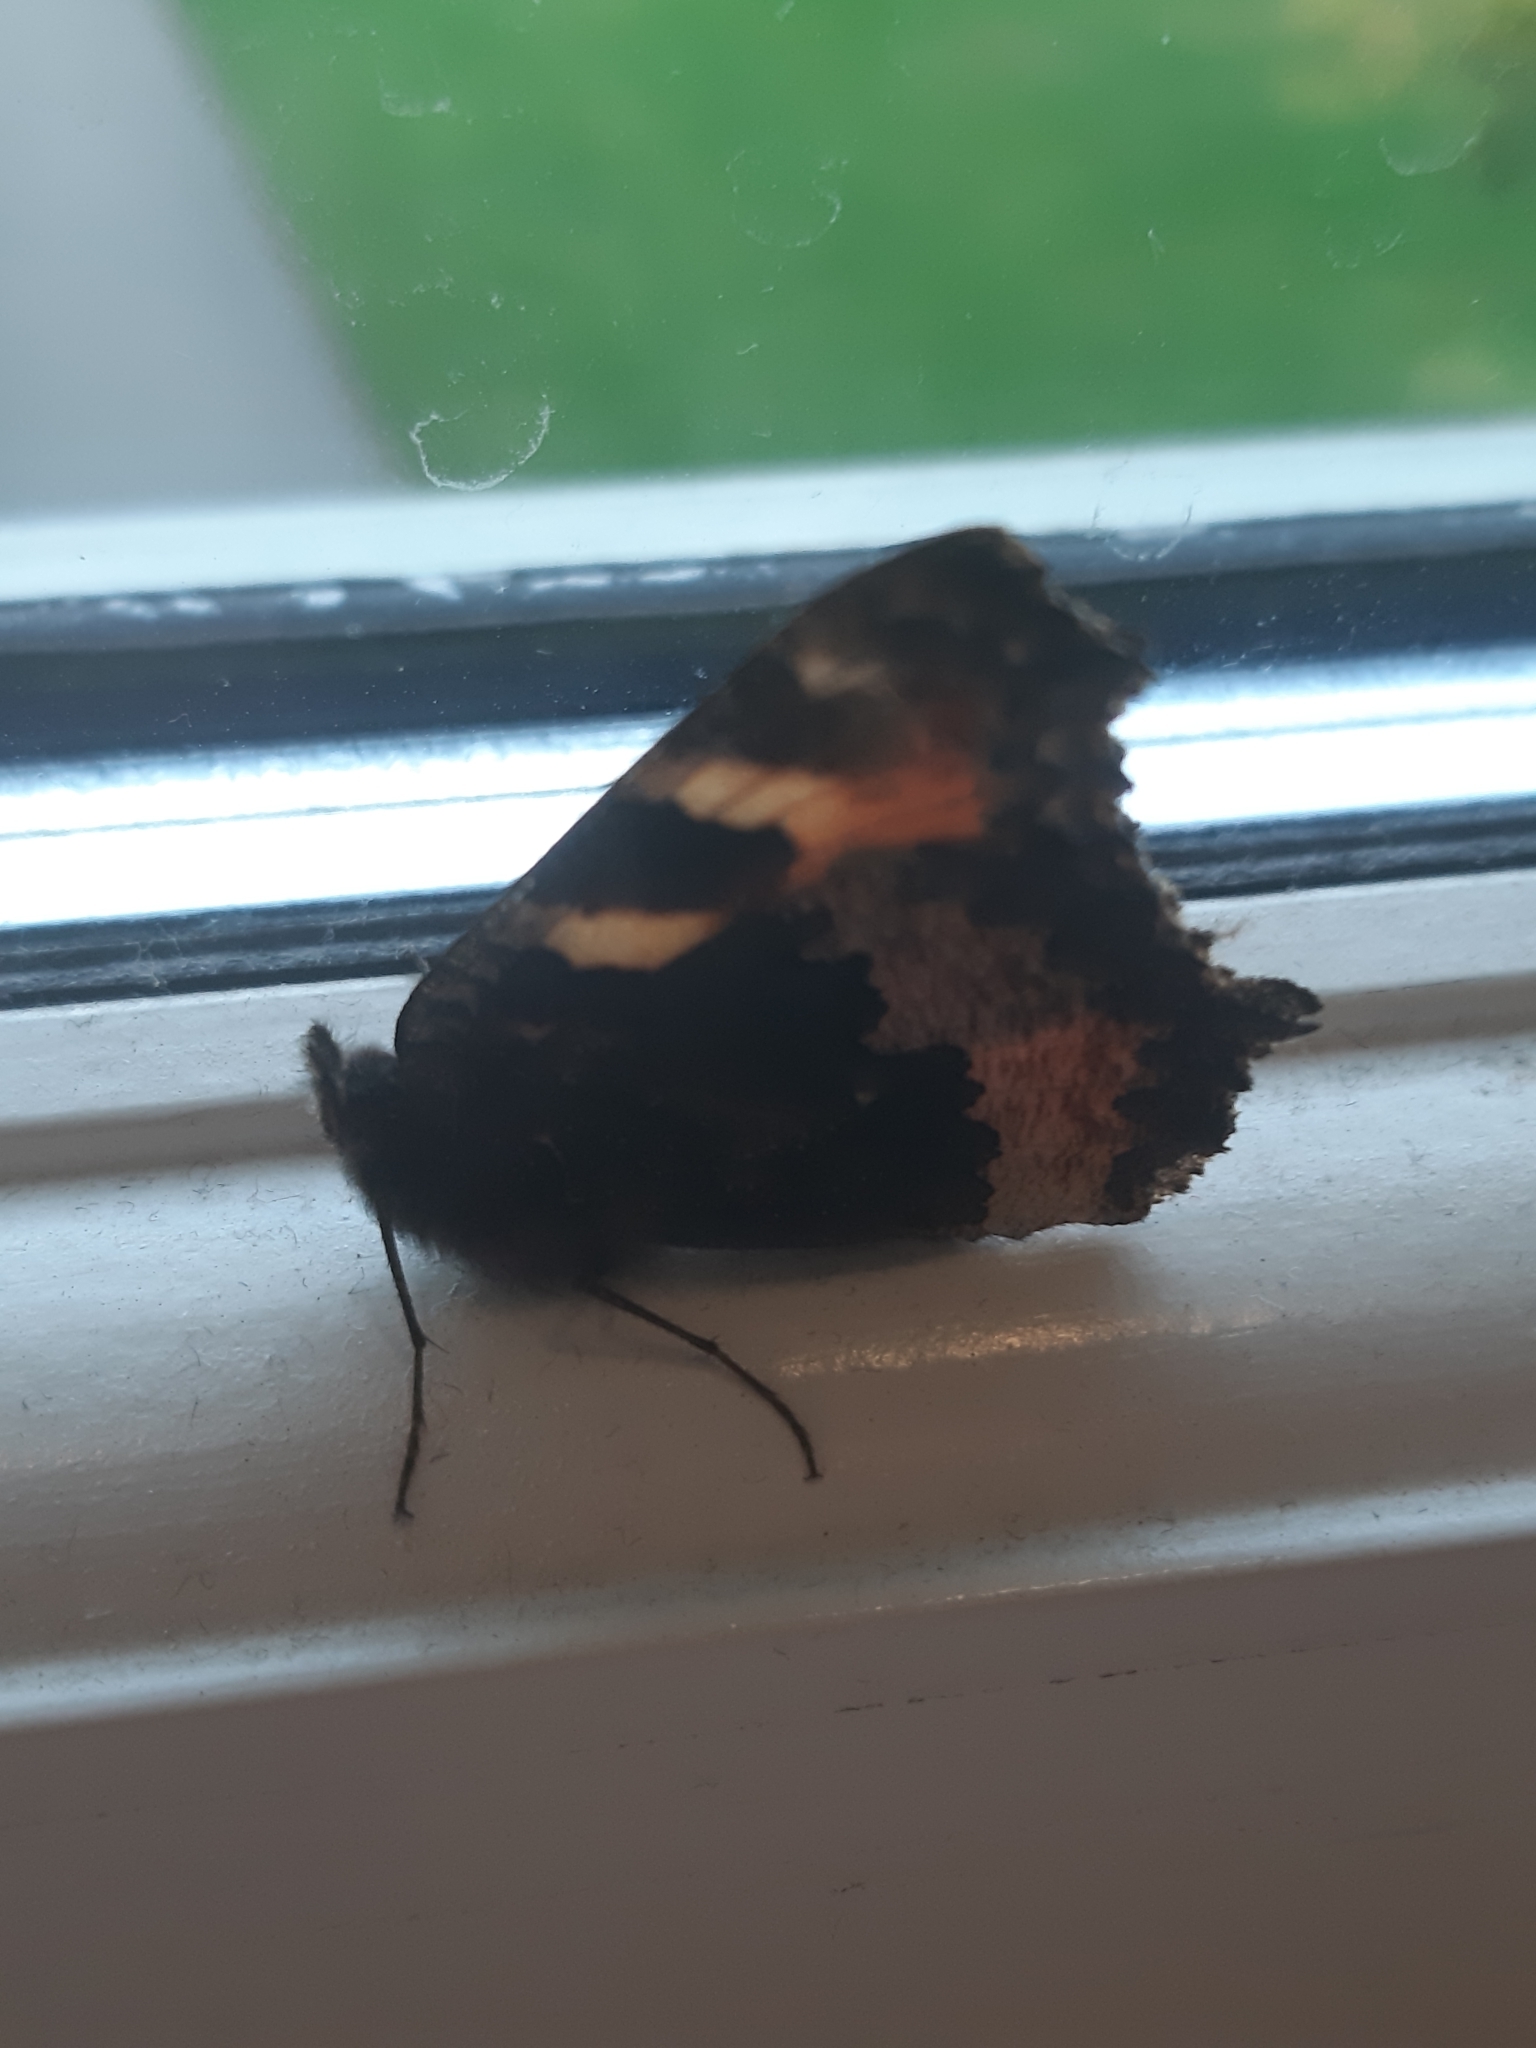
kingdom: Animalia
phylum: Arthropoda
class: Insecta
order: Lepidoptera
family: Nymphalidae
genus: Aglais
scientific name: Aglais urticae
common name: Small tortoiseshell
